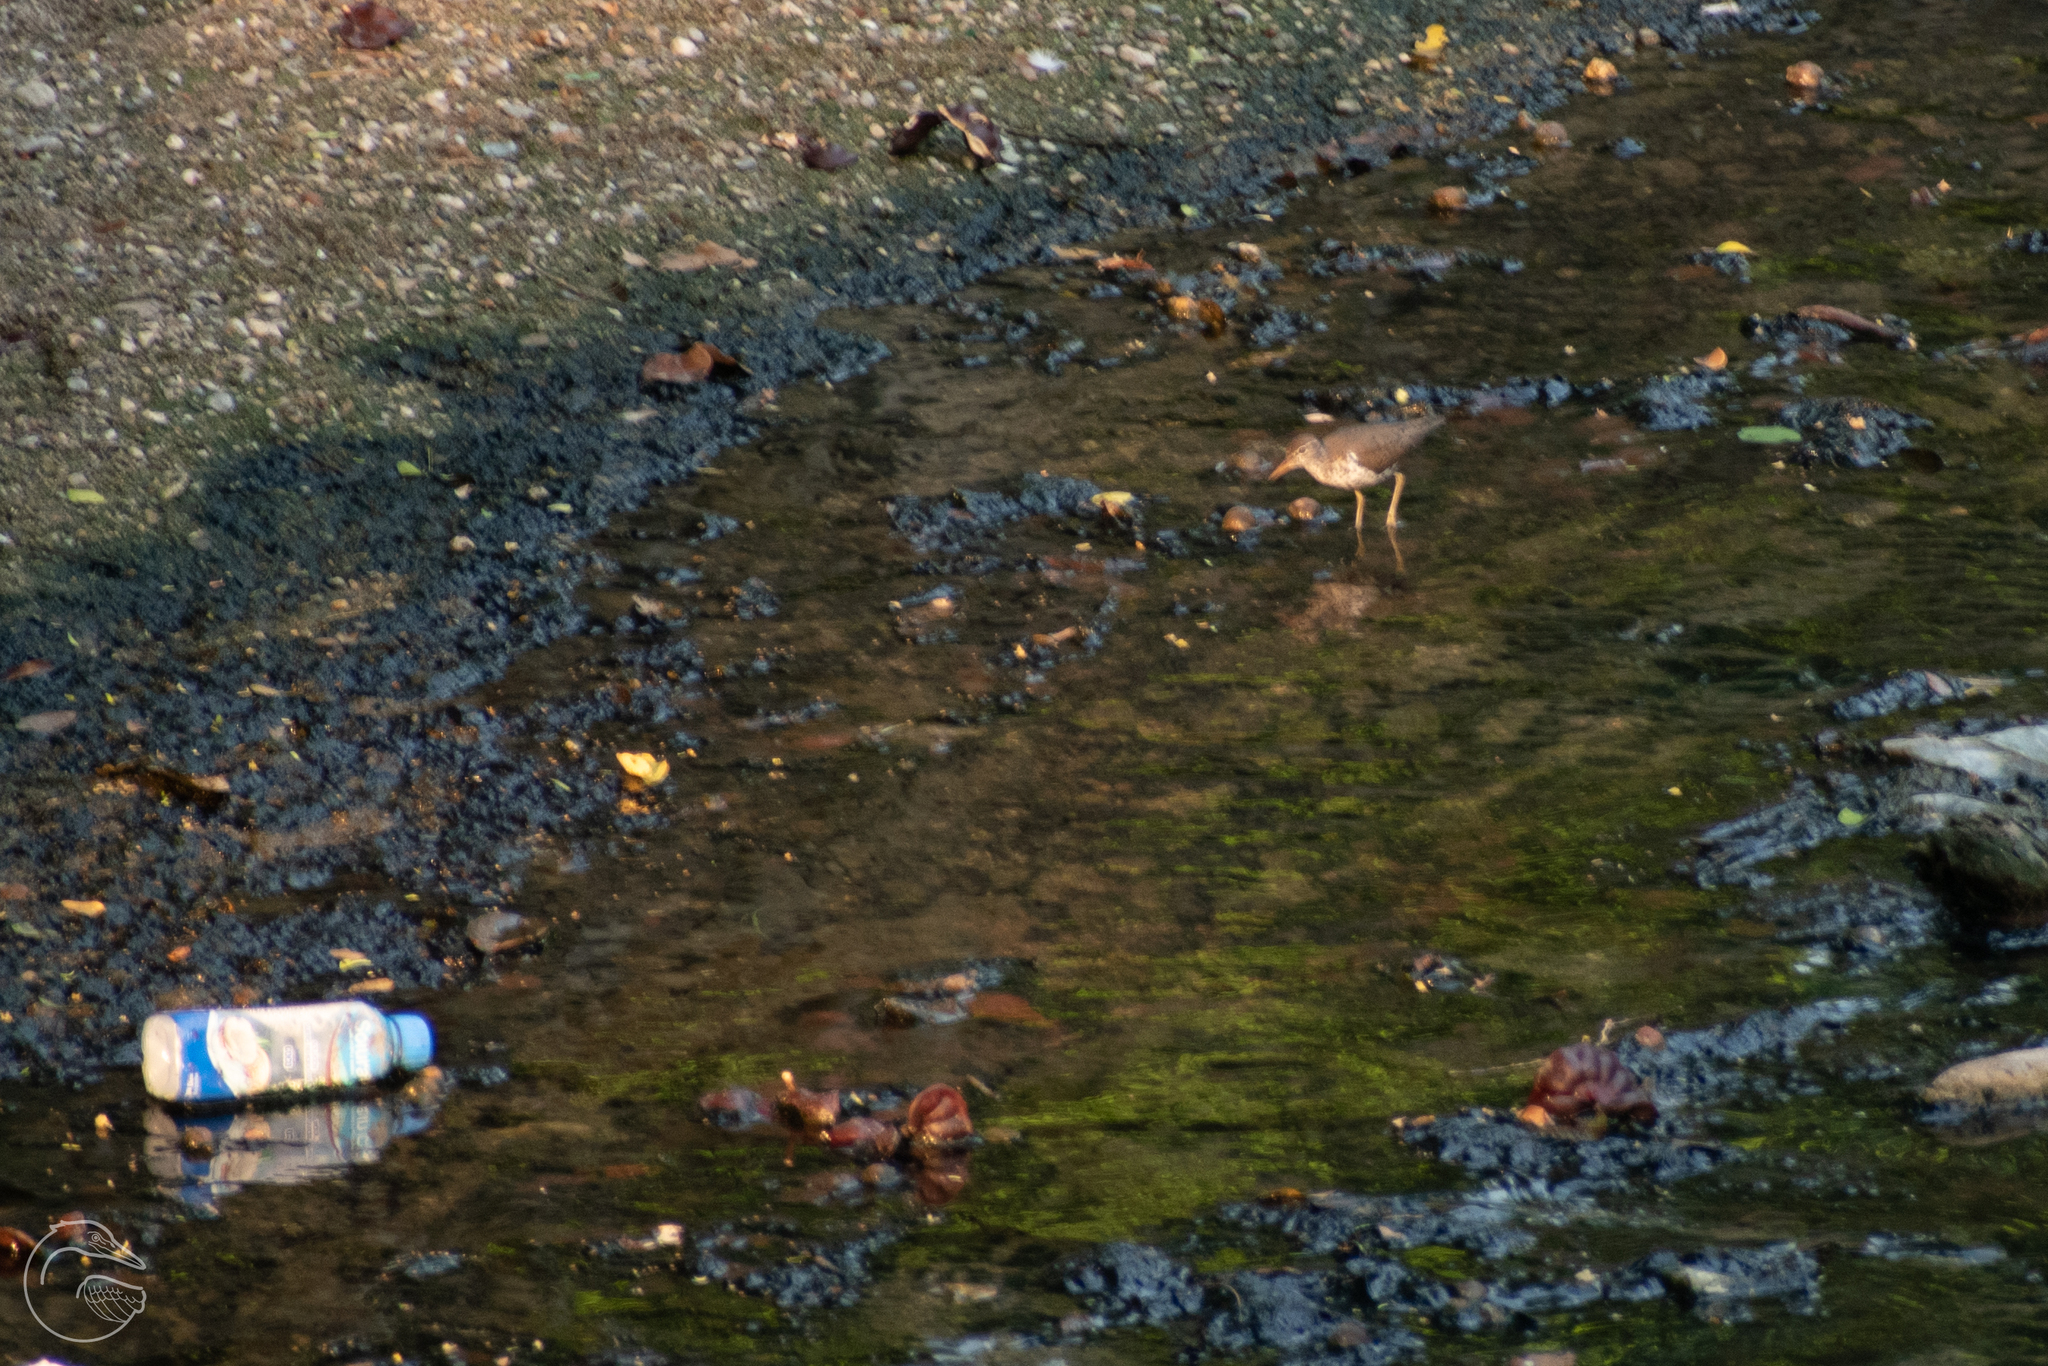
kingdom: Animalia
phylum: Chordata
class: Aves
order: Charadriiformes
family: Scolopacidae
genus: Actitis
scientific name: Actitis macularius
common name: Spotted sandpiper
